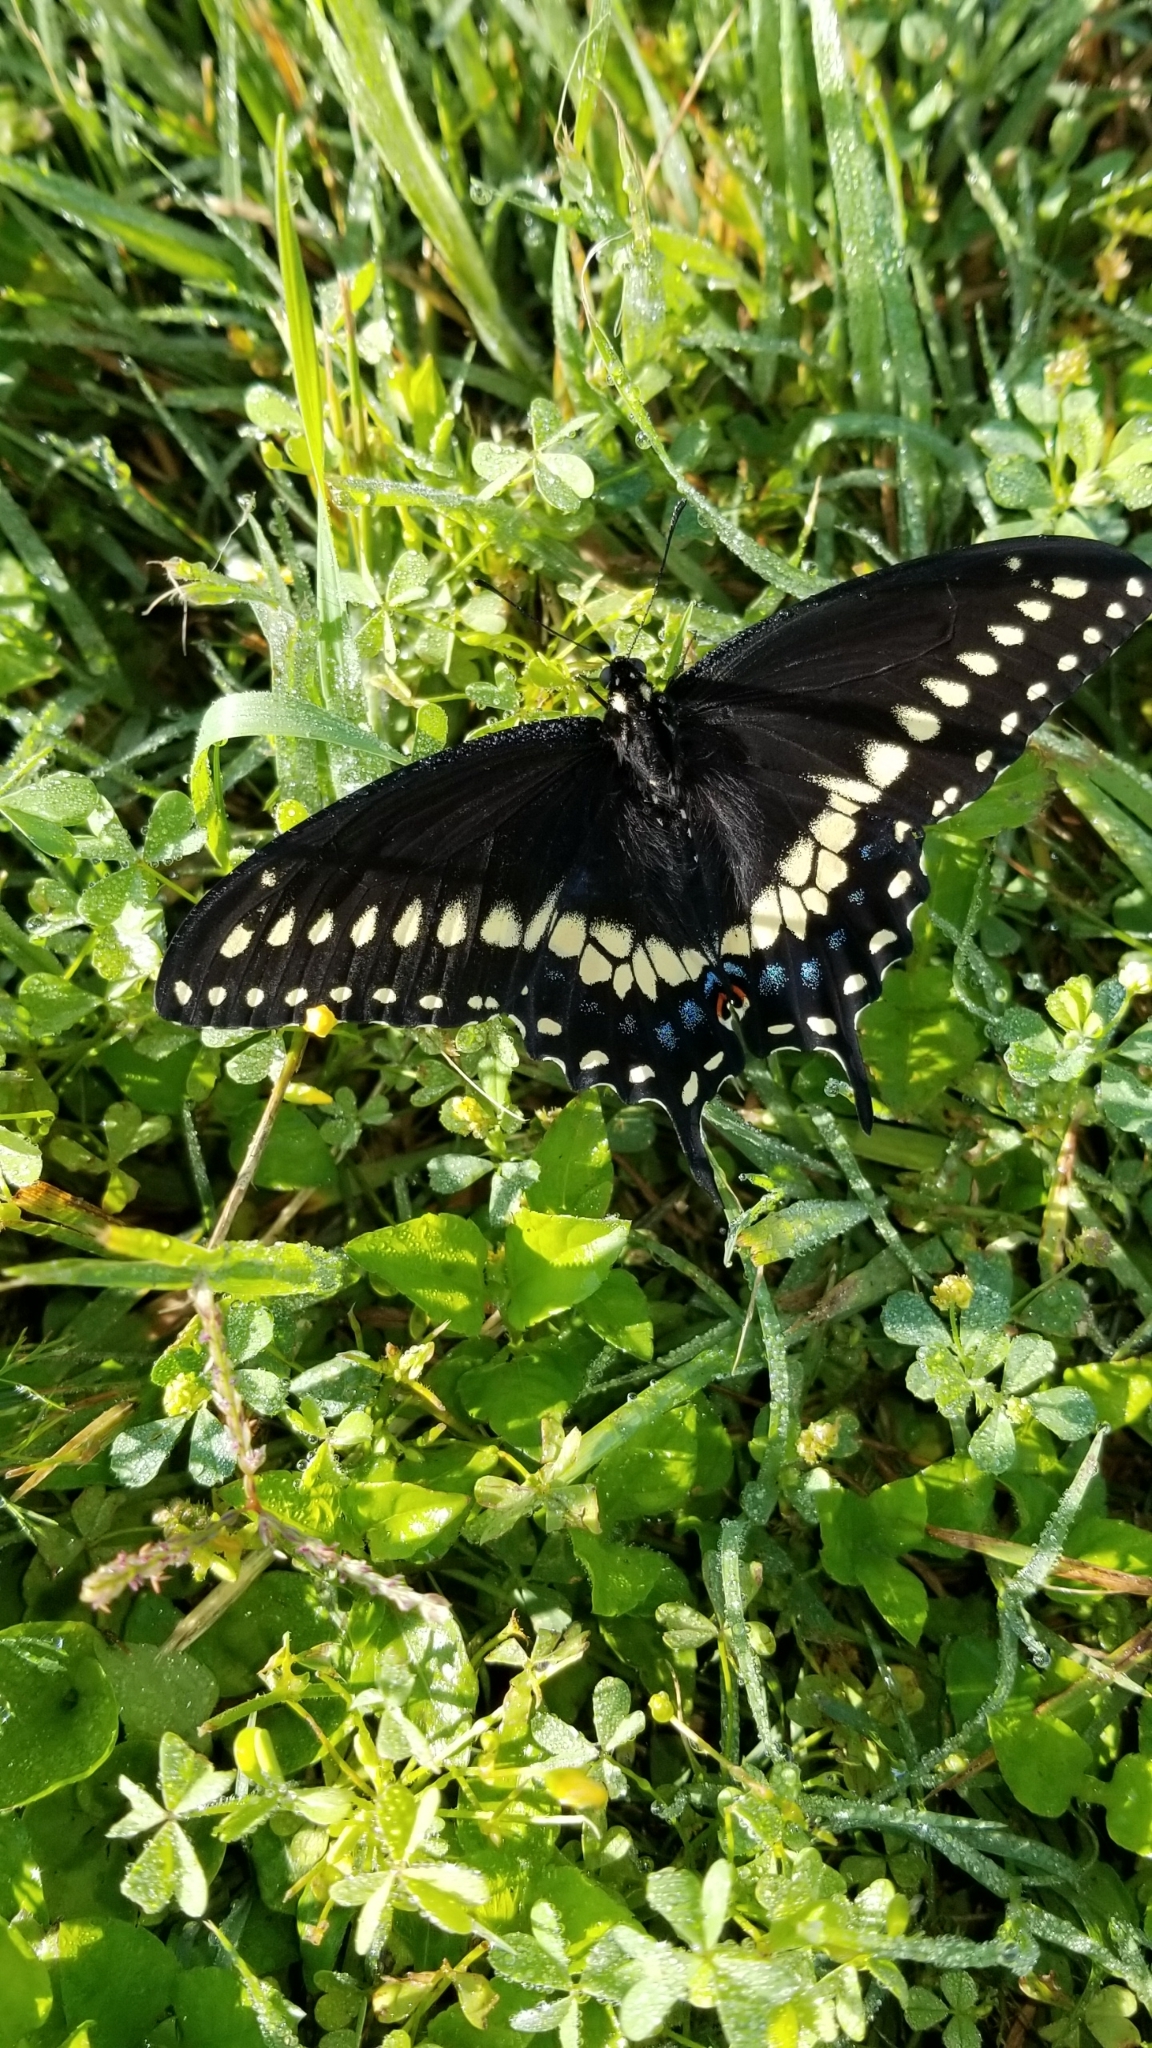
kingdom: Animalia
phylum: Arthropoda
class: Insecta
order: Lepidoptera
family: Papilionidae
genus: Papilio
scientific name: Papilio polyxenes
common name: Black swallowtail
